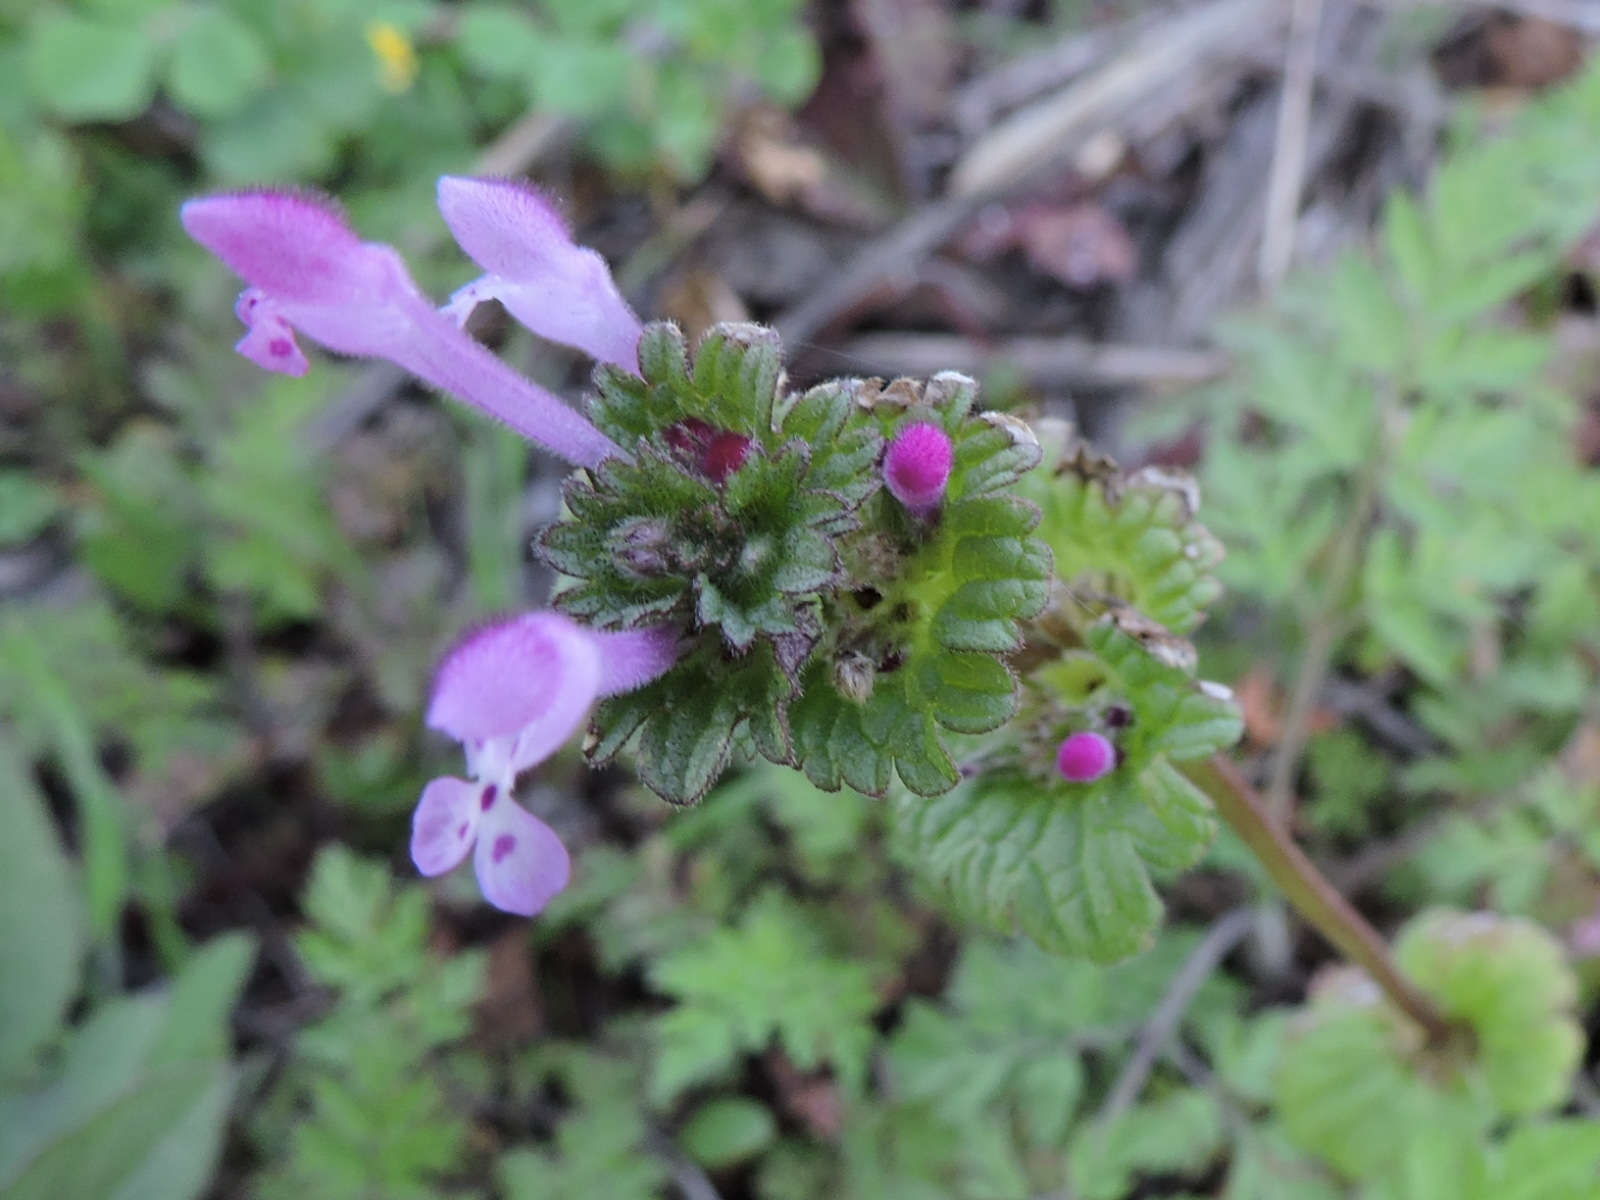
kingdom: Plantae
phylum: Tracheophyta
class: Magnoliopsida
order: Lamiales
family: Lamiaceae
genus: Lamium
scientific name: Lamium amplexicaule
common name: Henbit dead-nettle
